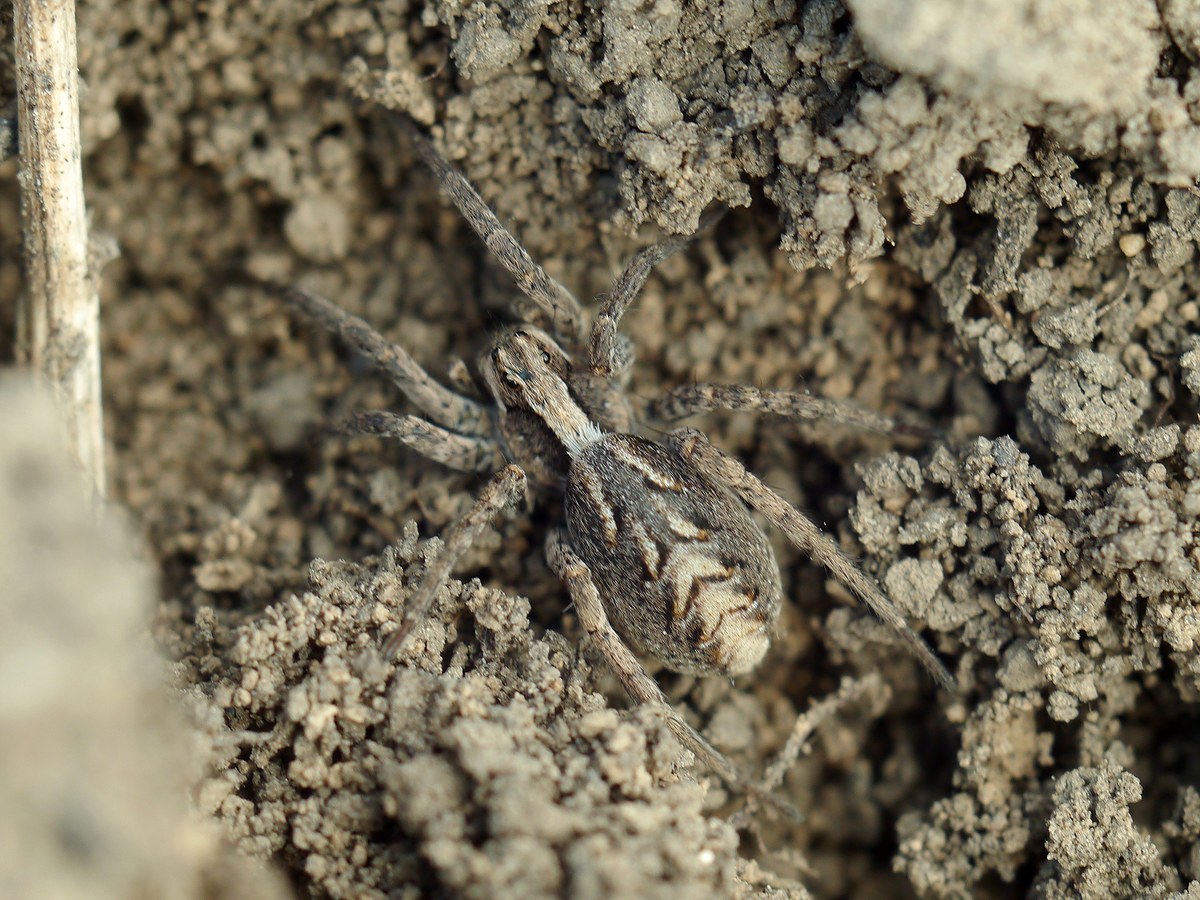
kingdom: Animalia
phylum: Arthropoda
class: Arachnida
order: Araneae
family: Lycosidae
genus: Alopecosa
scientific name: Alopecosa cursor
